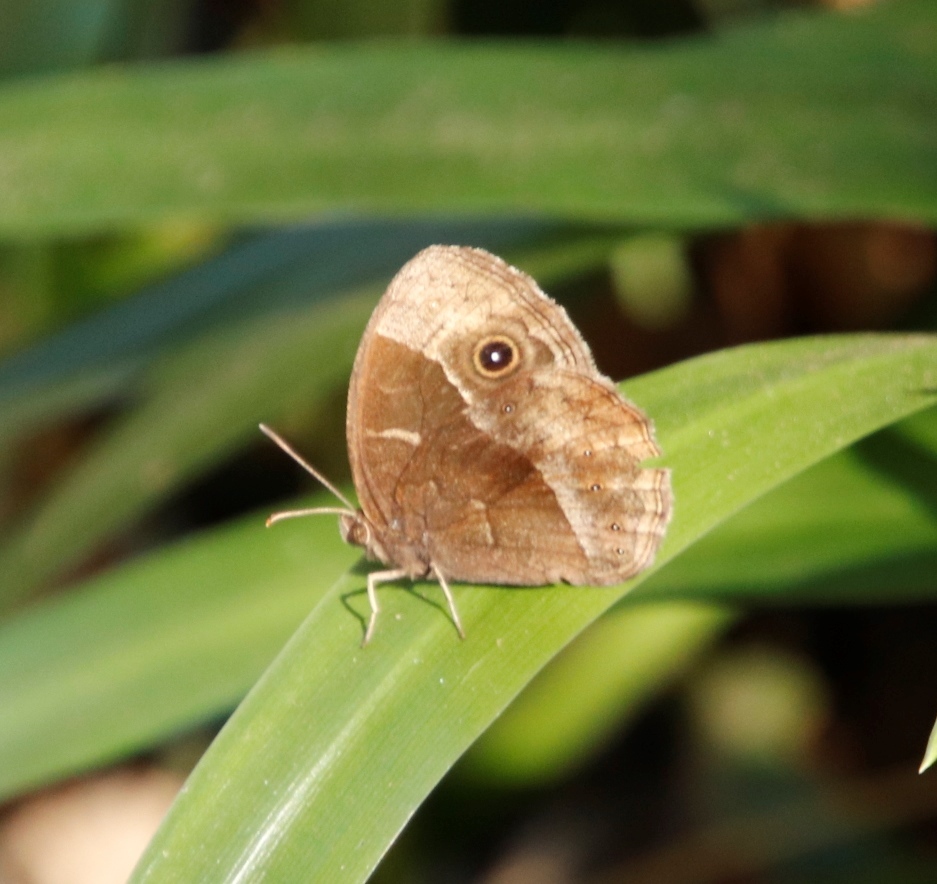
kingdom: Animalia
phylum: Arthropoda
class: Insecta
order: Lepidoptera
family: Nymphalidae
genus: Mycalesis
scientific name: Mycalesis rhacotis
